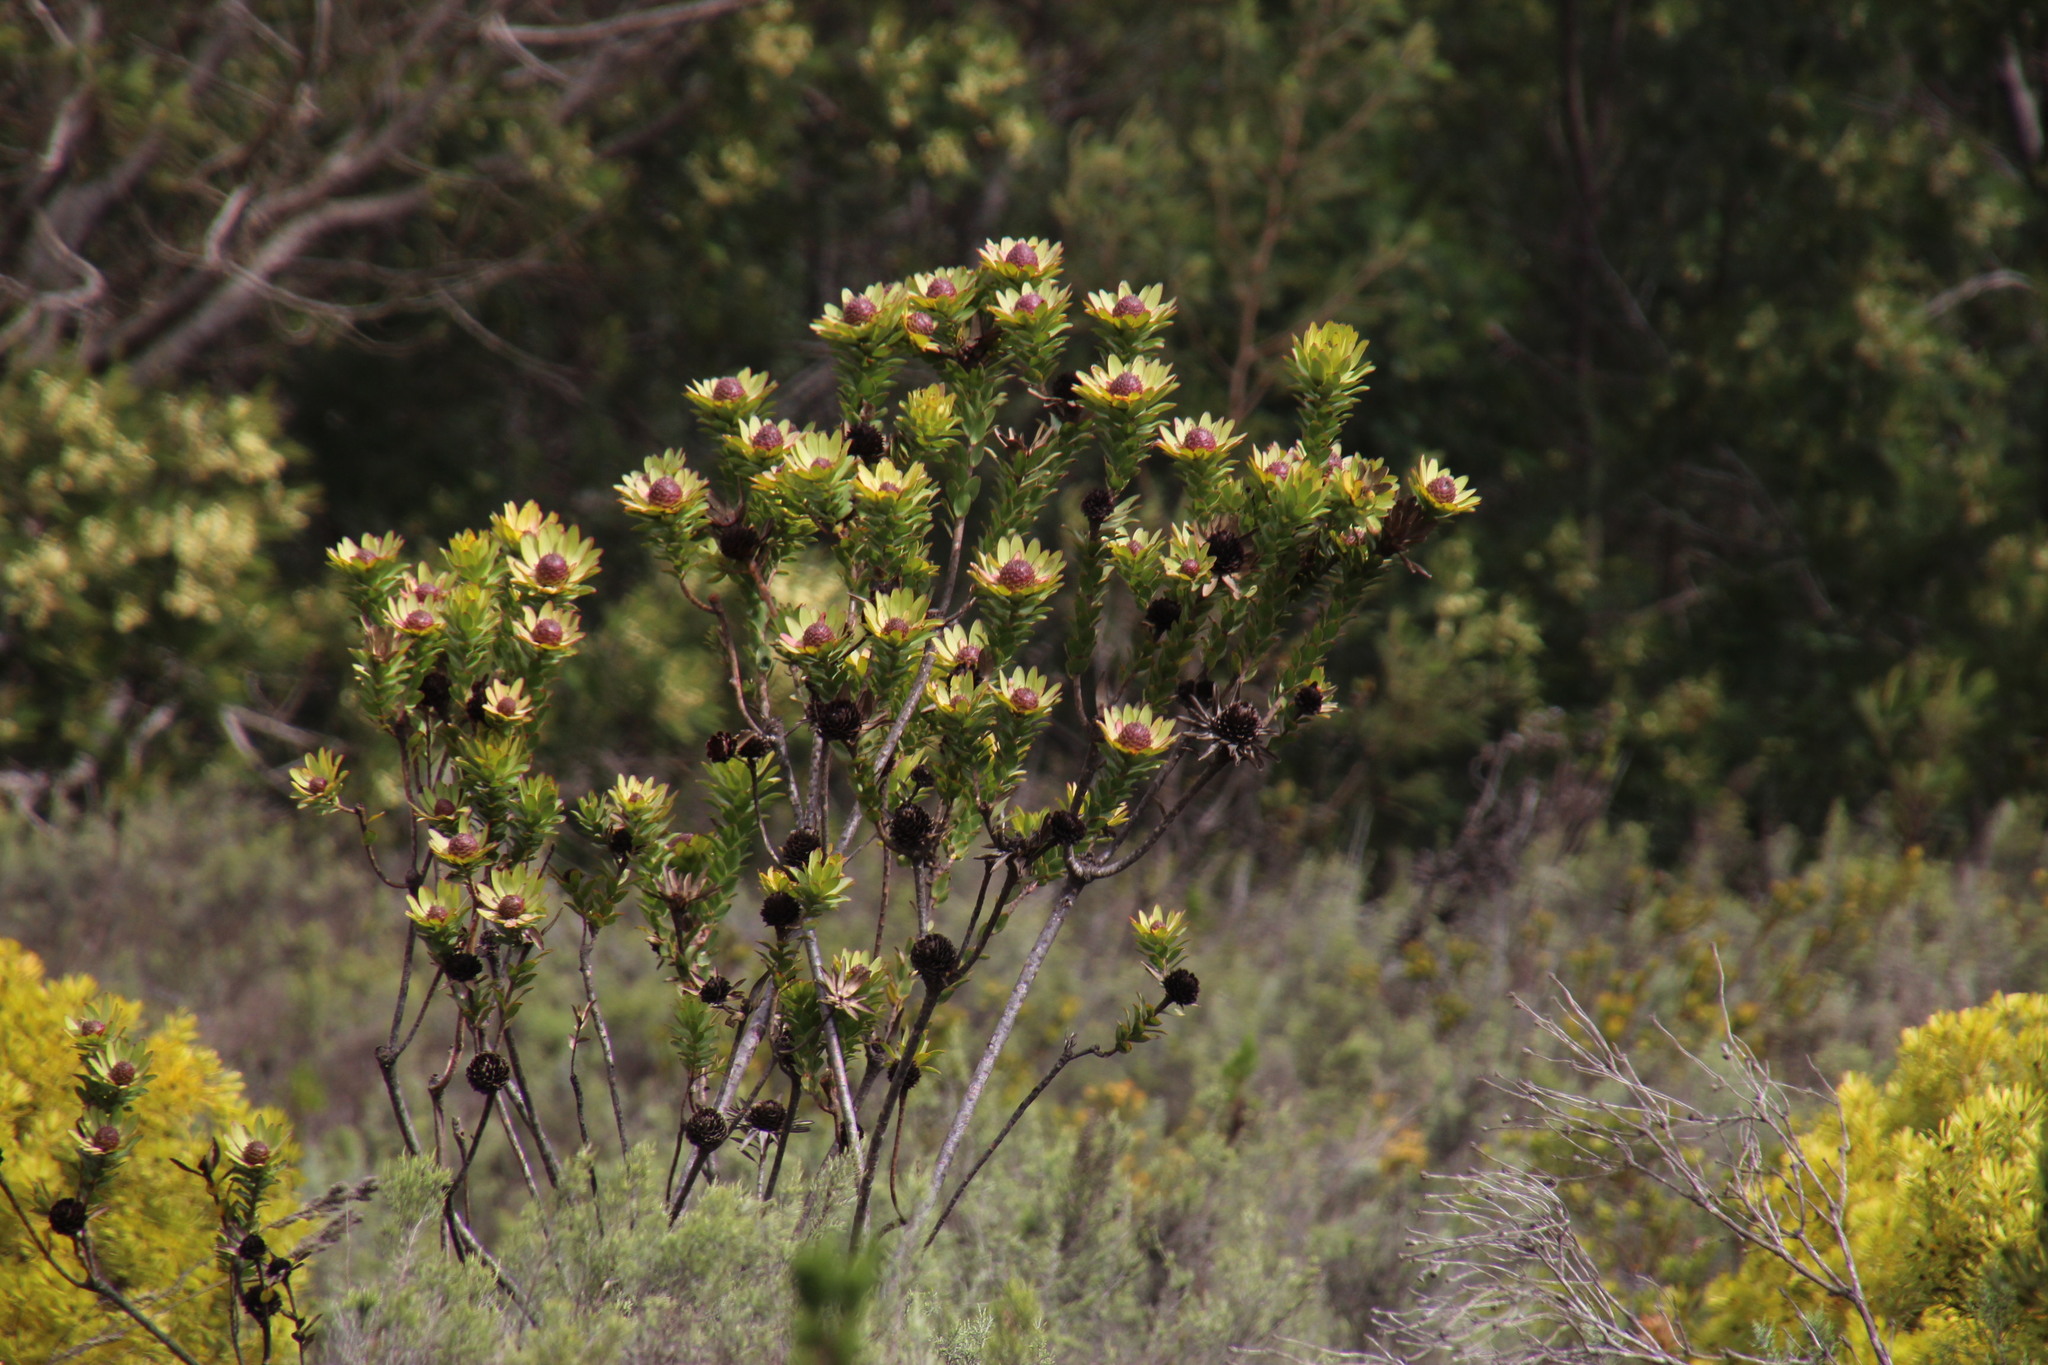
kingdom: Plantae
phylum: Tracheophyta
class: Magnoliopsida
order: Proteales
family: Proteaceae
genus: Leucadendron
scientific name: Leucadendron elimense
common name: Elim conebush
